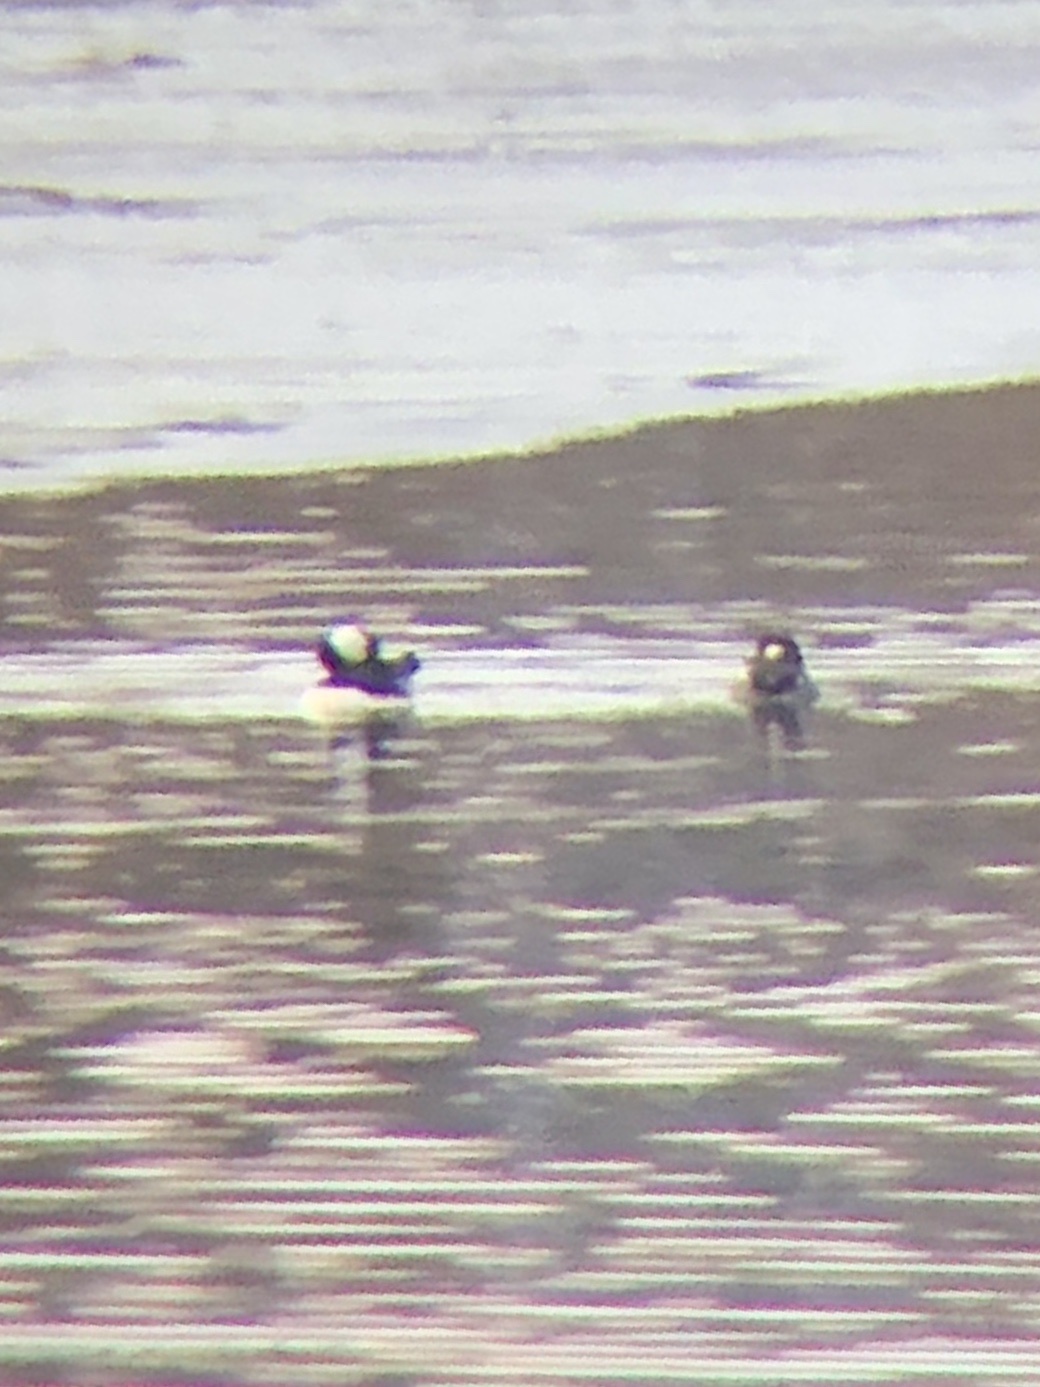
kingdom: Animalia
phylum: Chordata
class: Aves
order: Anseriformes
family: Anatidae
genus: Bucephala
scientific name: Bucephala albeola
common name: Bufflehead
